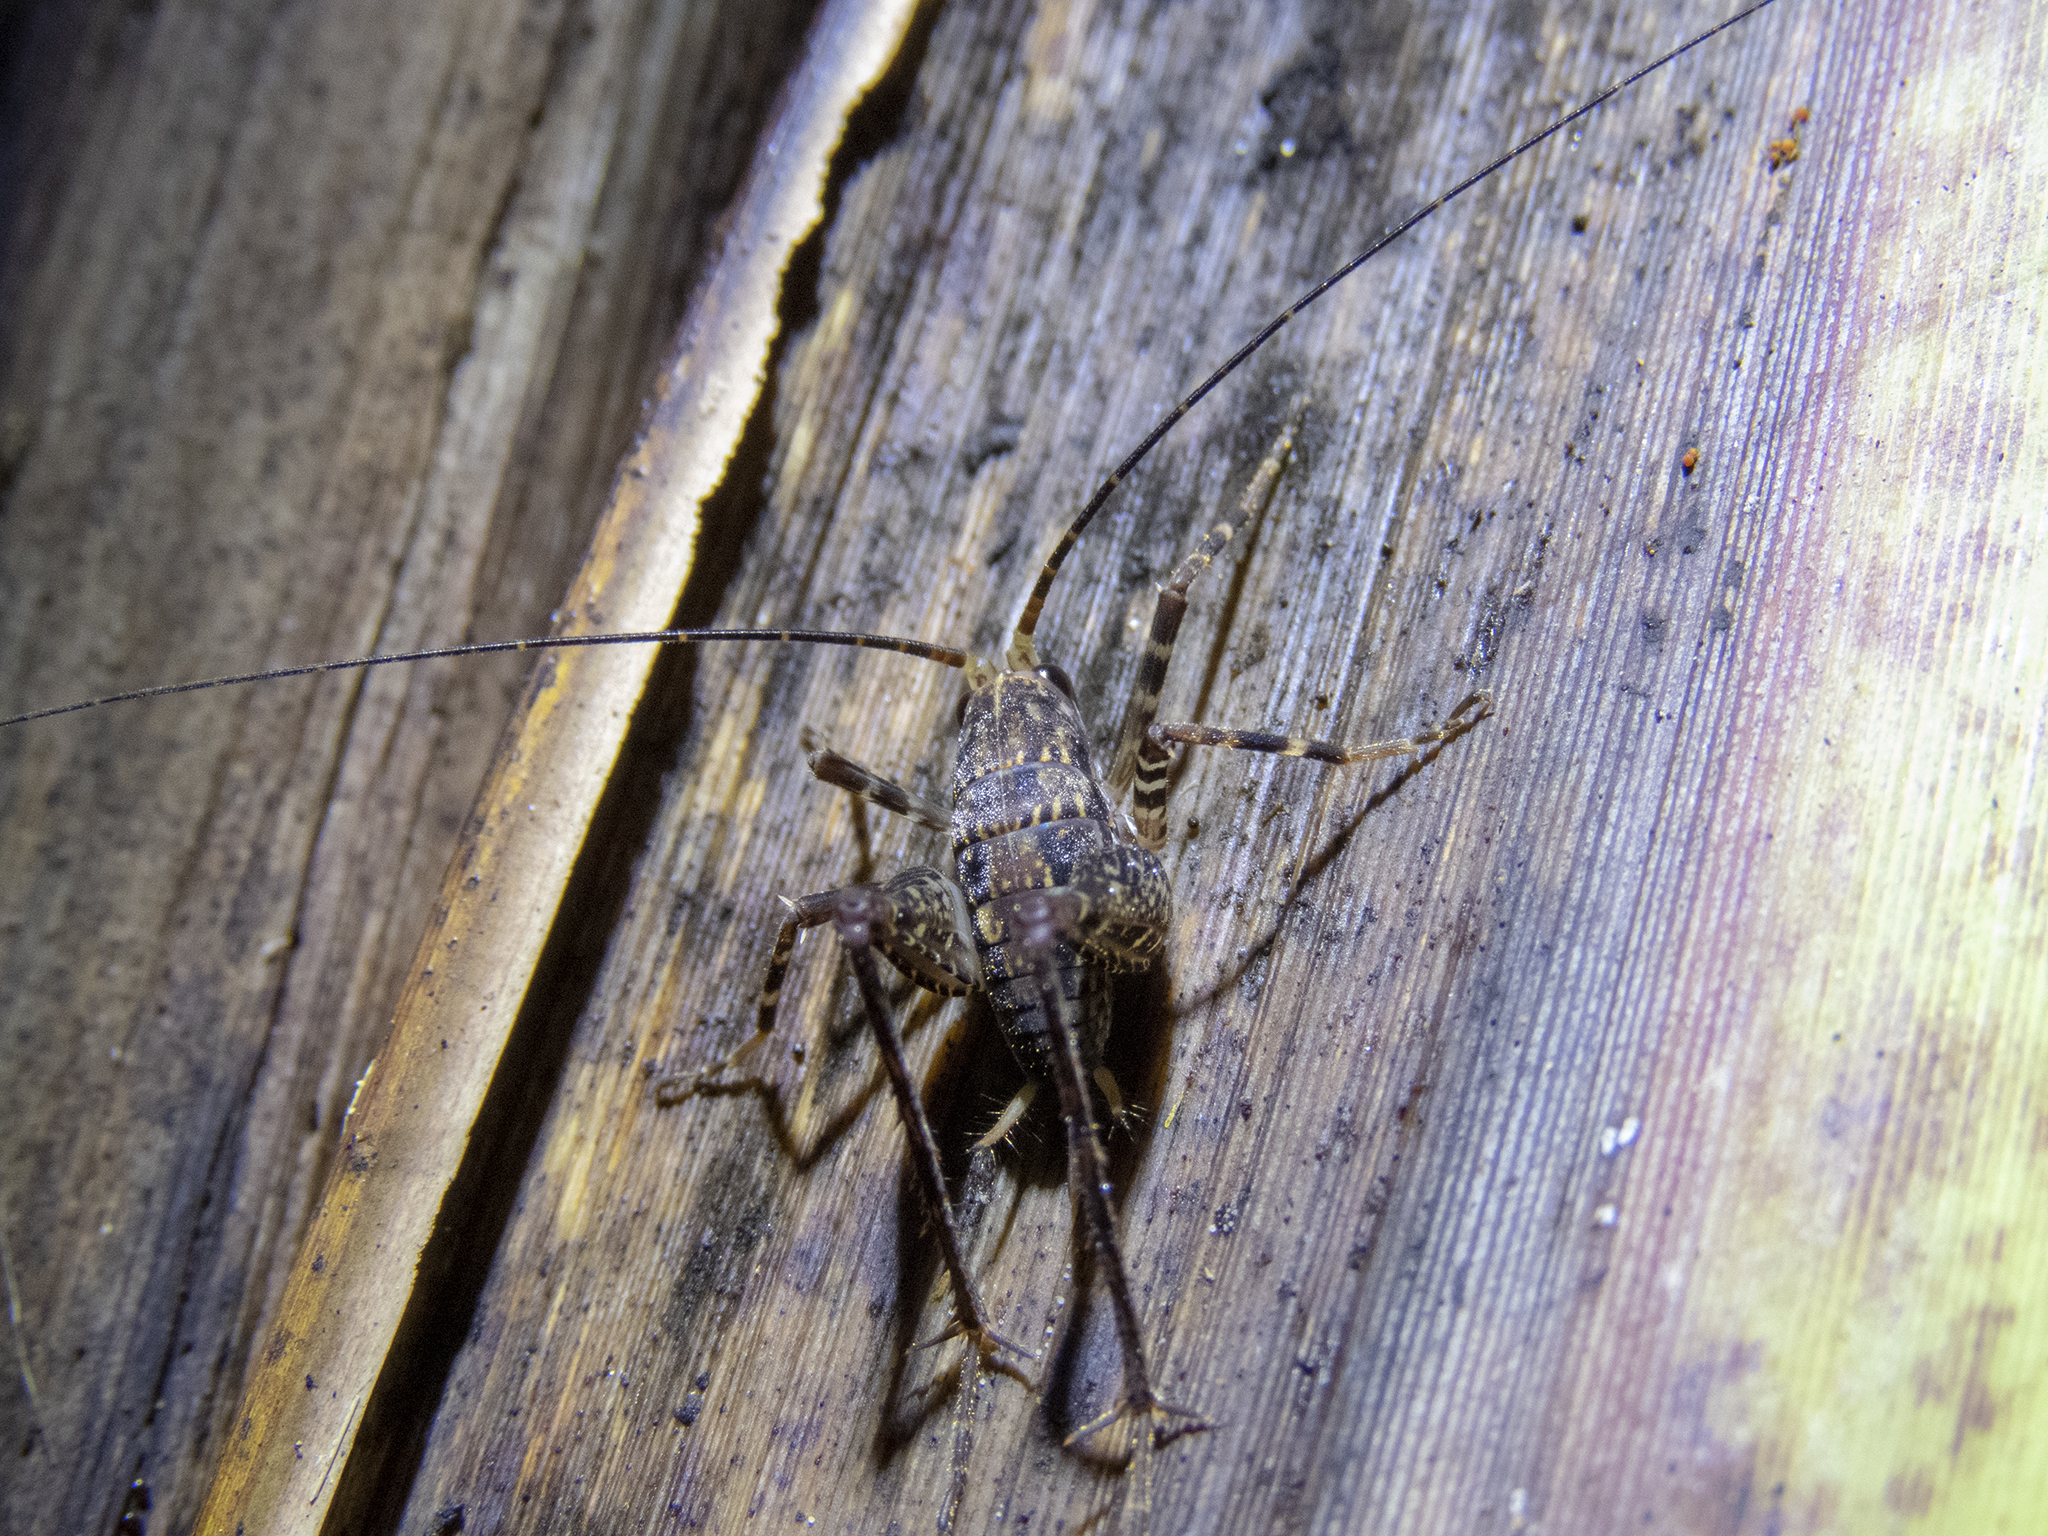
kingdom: Animalia
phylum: Arthropoda
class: Insecta
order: Orthoptera
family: Rhaphidophoridae
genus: Pleioplectron
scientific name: Pleioplectron gubernator
